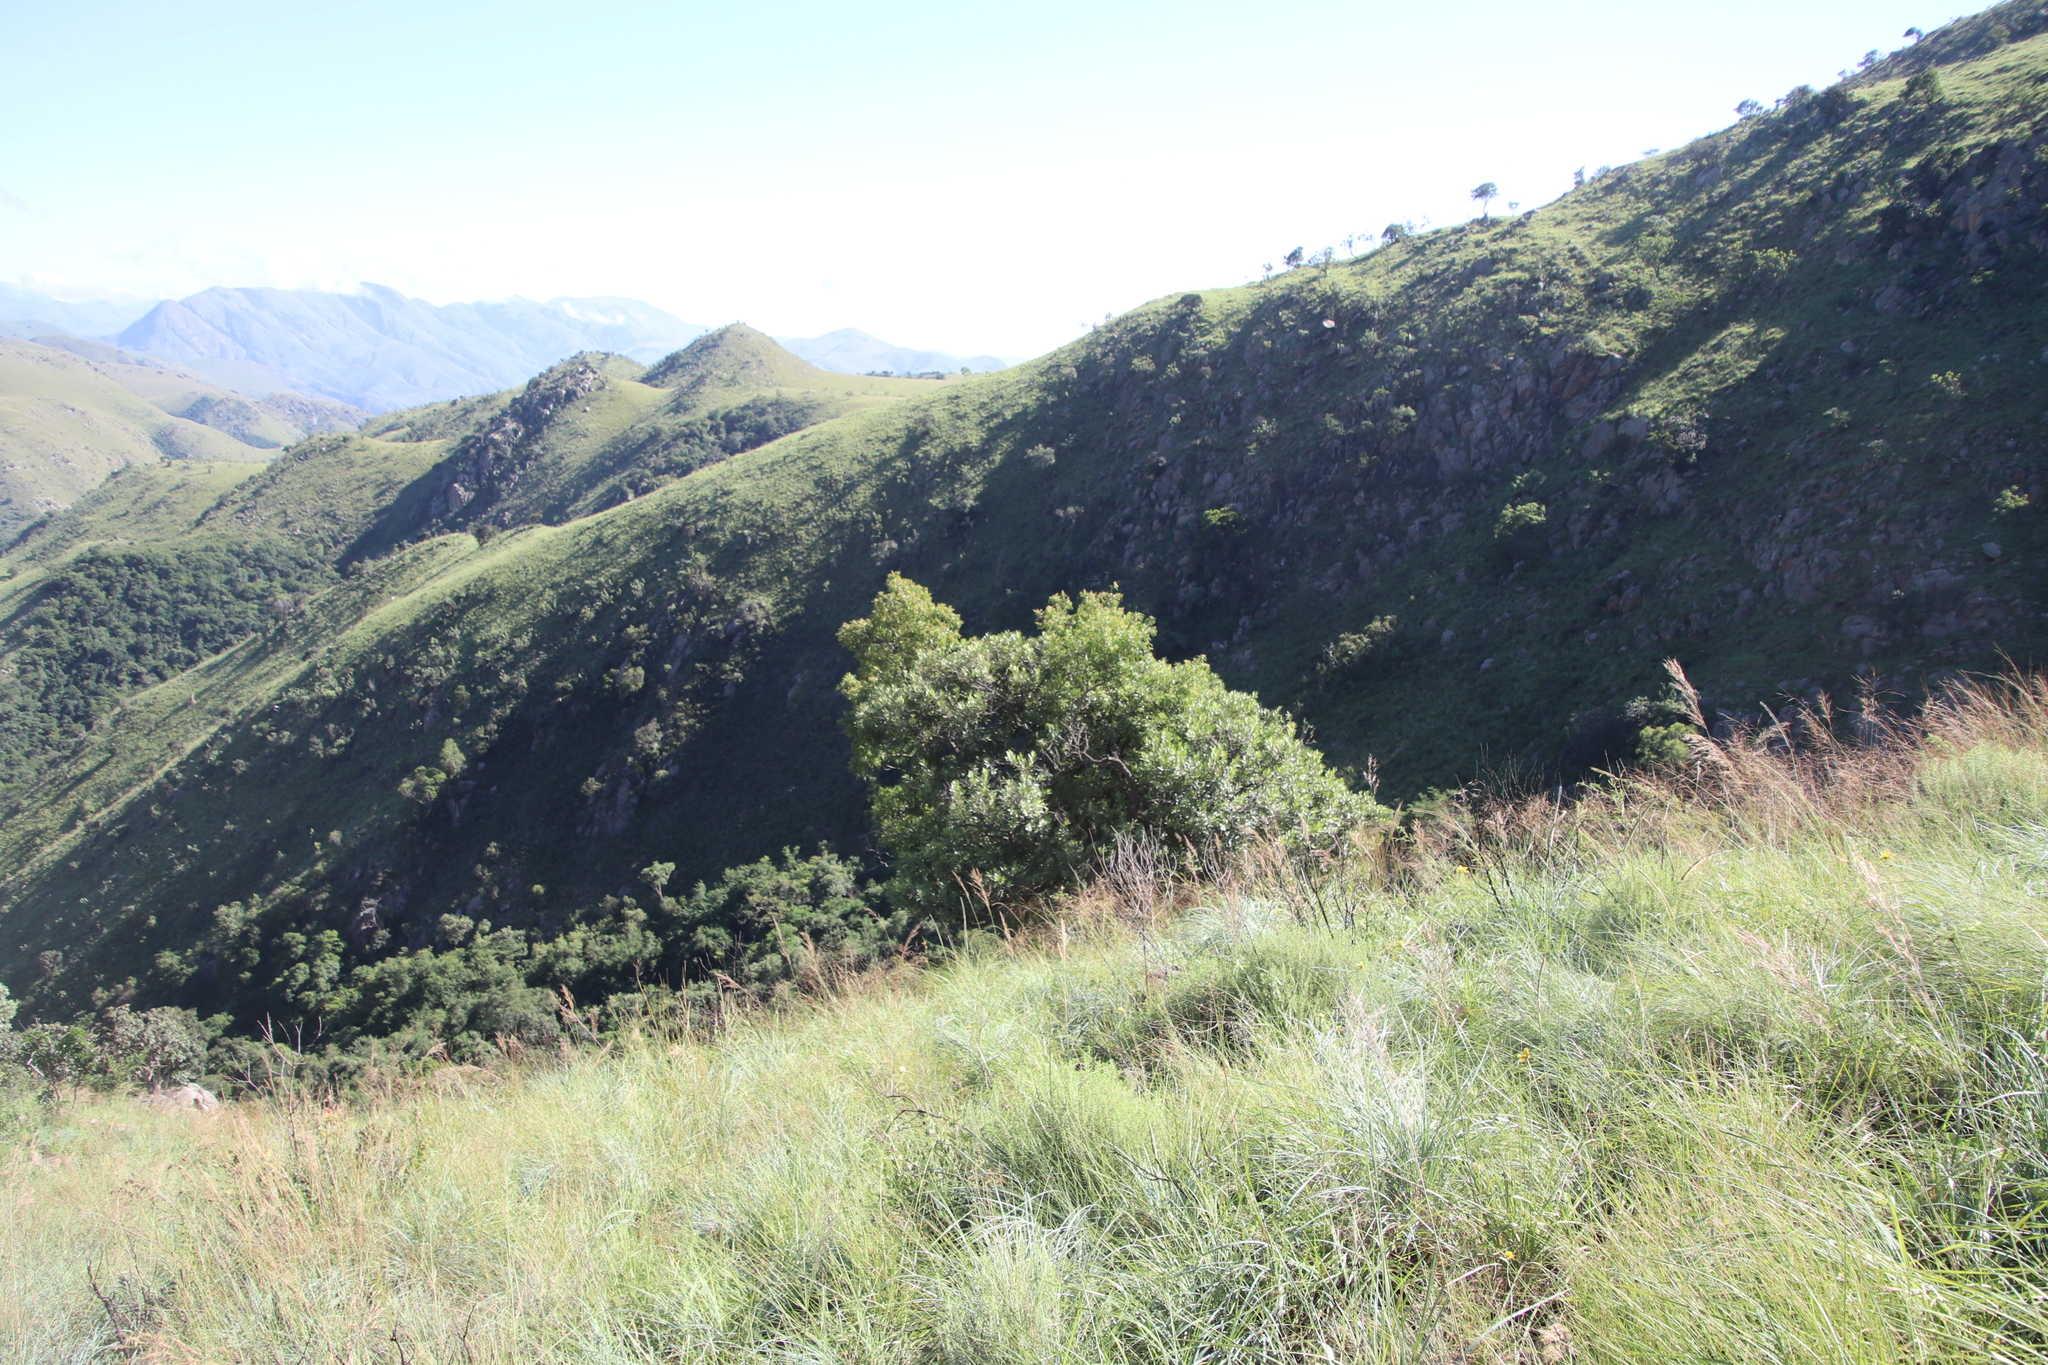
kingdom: Plantae
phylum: Tracheophyta
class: Magnoliopsida
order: Myrtales
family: Myrtaceae
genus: Heteropyxis
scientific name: Heteropyxis natalensis
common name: Lavender tree
